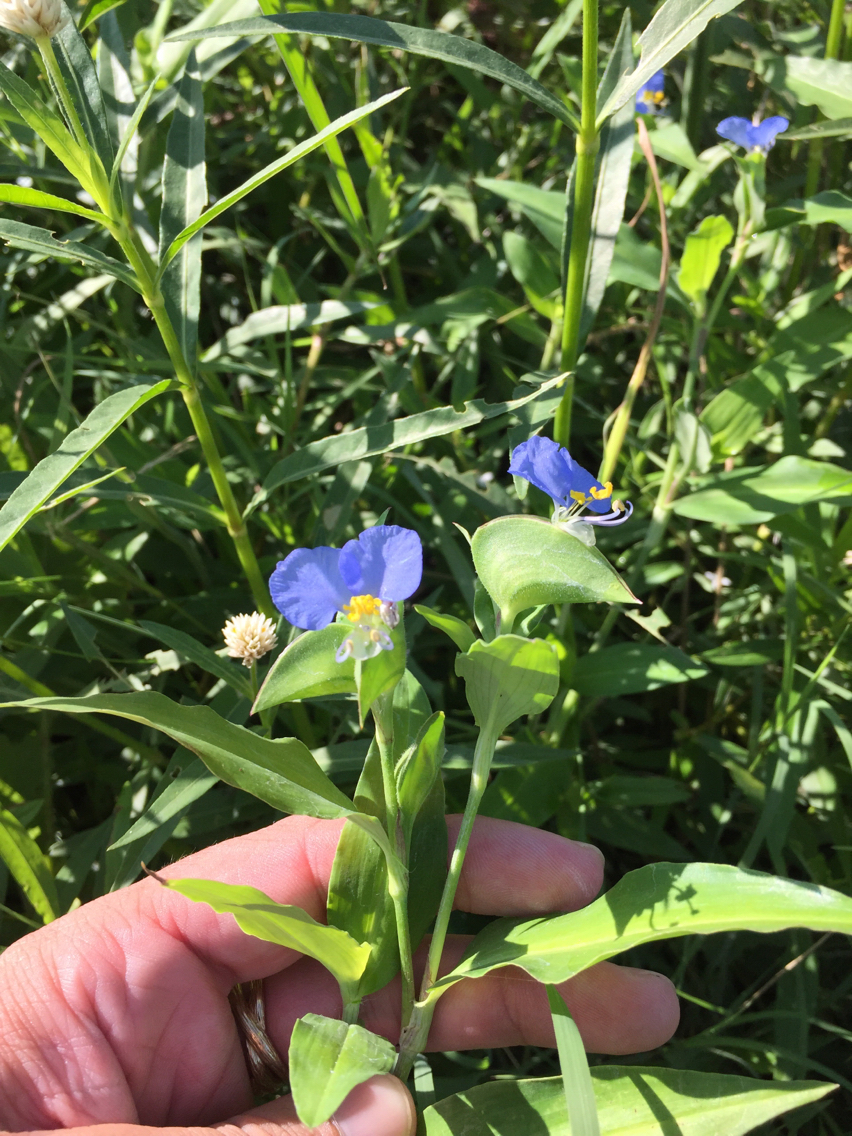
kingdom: Plantae
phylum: Tracheophyta
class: Liliopsida
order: Commelinales
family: Commelinaceae
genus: Commelina
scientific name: Commelina erecta
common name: Blousel blommetjie
